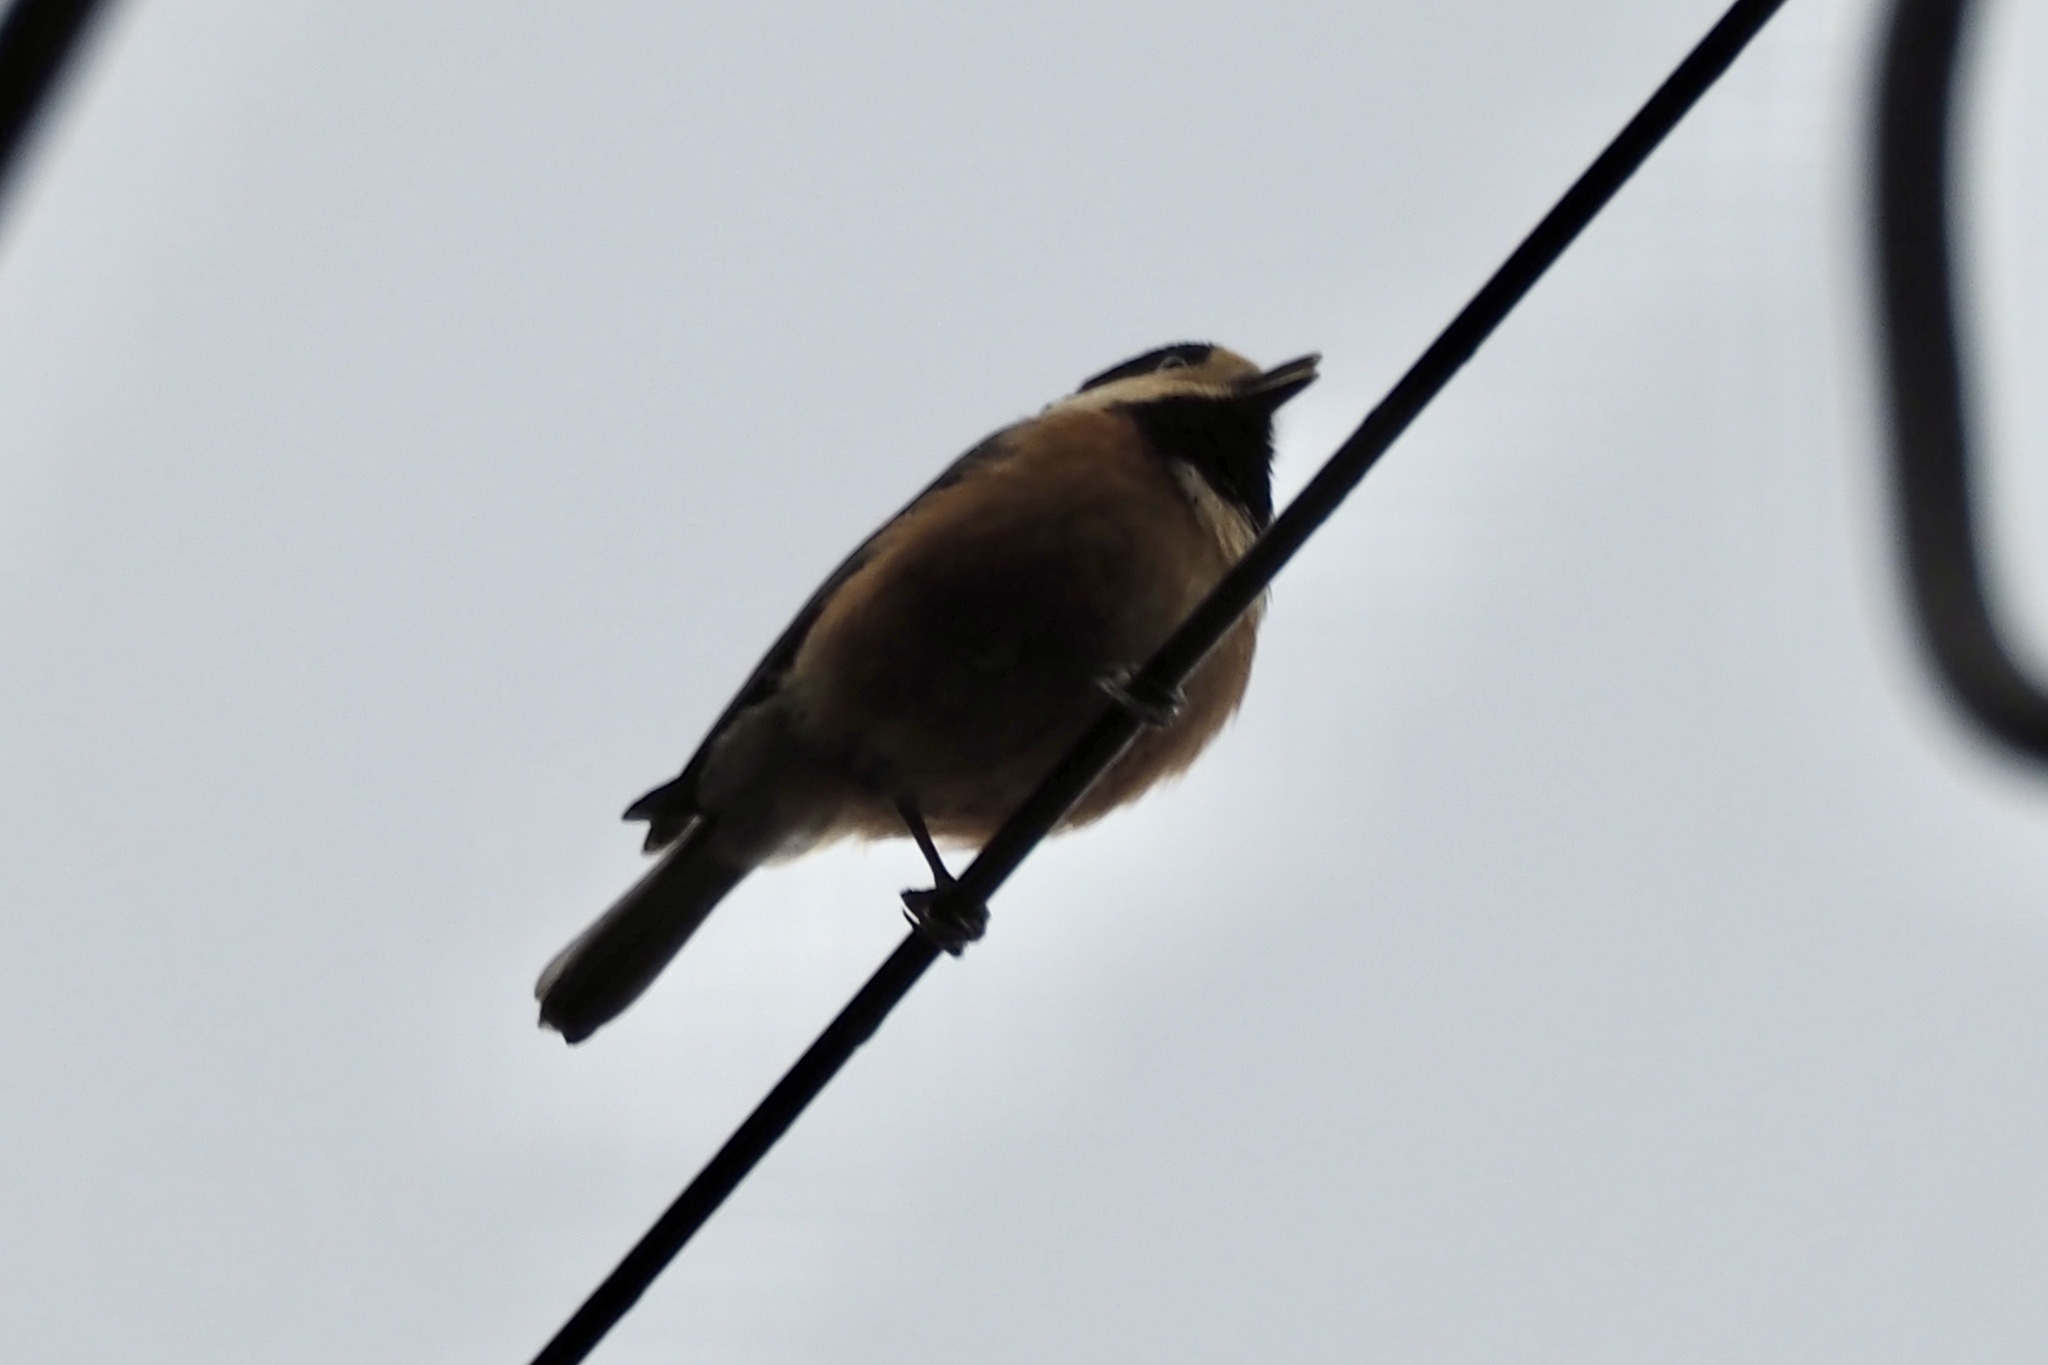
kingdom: Animalia
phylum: Chordata
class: Aves
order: Passeriformes
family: Paridae
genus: Poecile
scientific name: Poecile varius
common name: Varied tit
